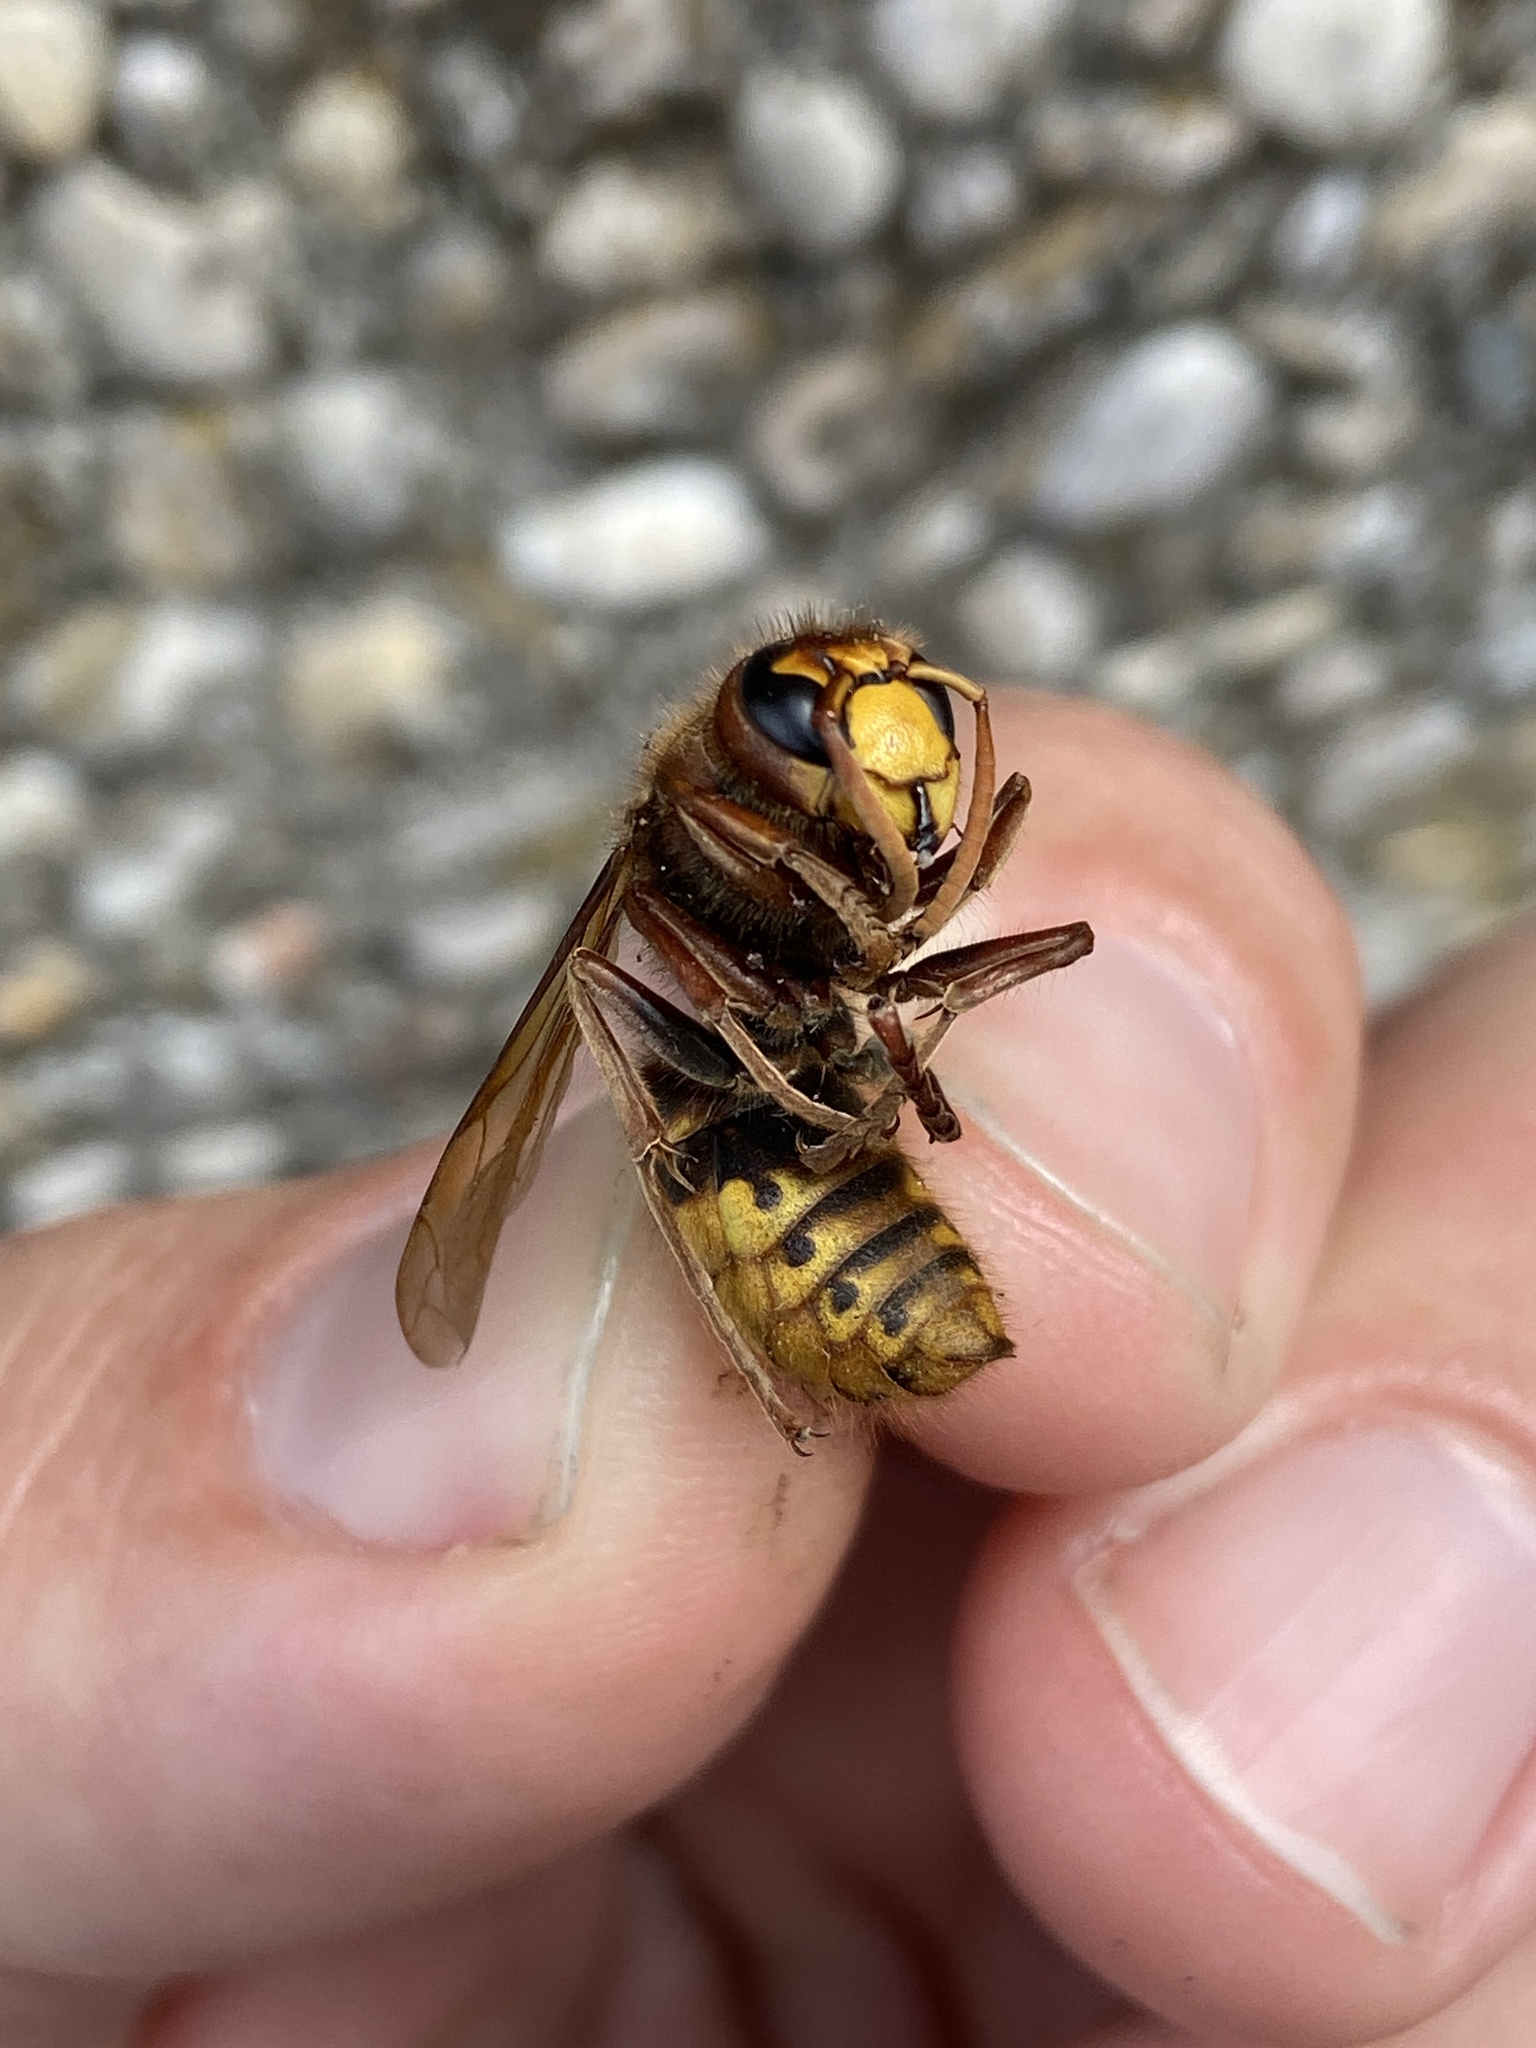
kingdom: Animalia
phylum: Arthropoda
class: Insecta
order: Hymenoptera
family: Vespidae
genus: Vespa
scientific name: Vespa crabro
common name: Hornet
